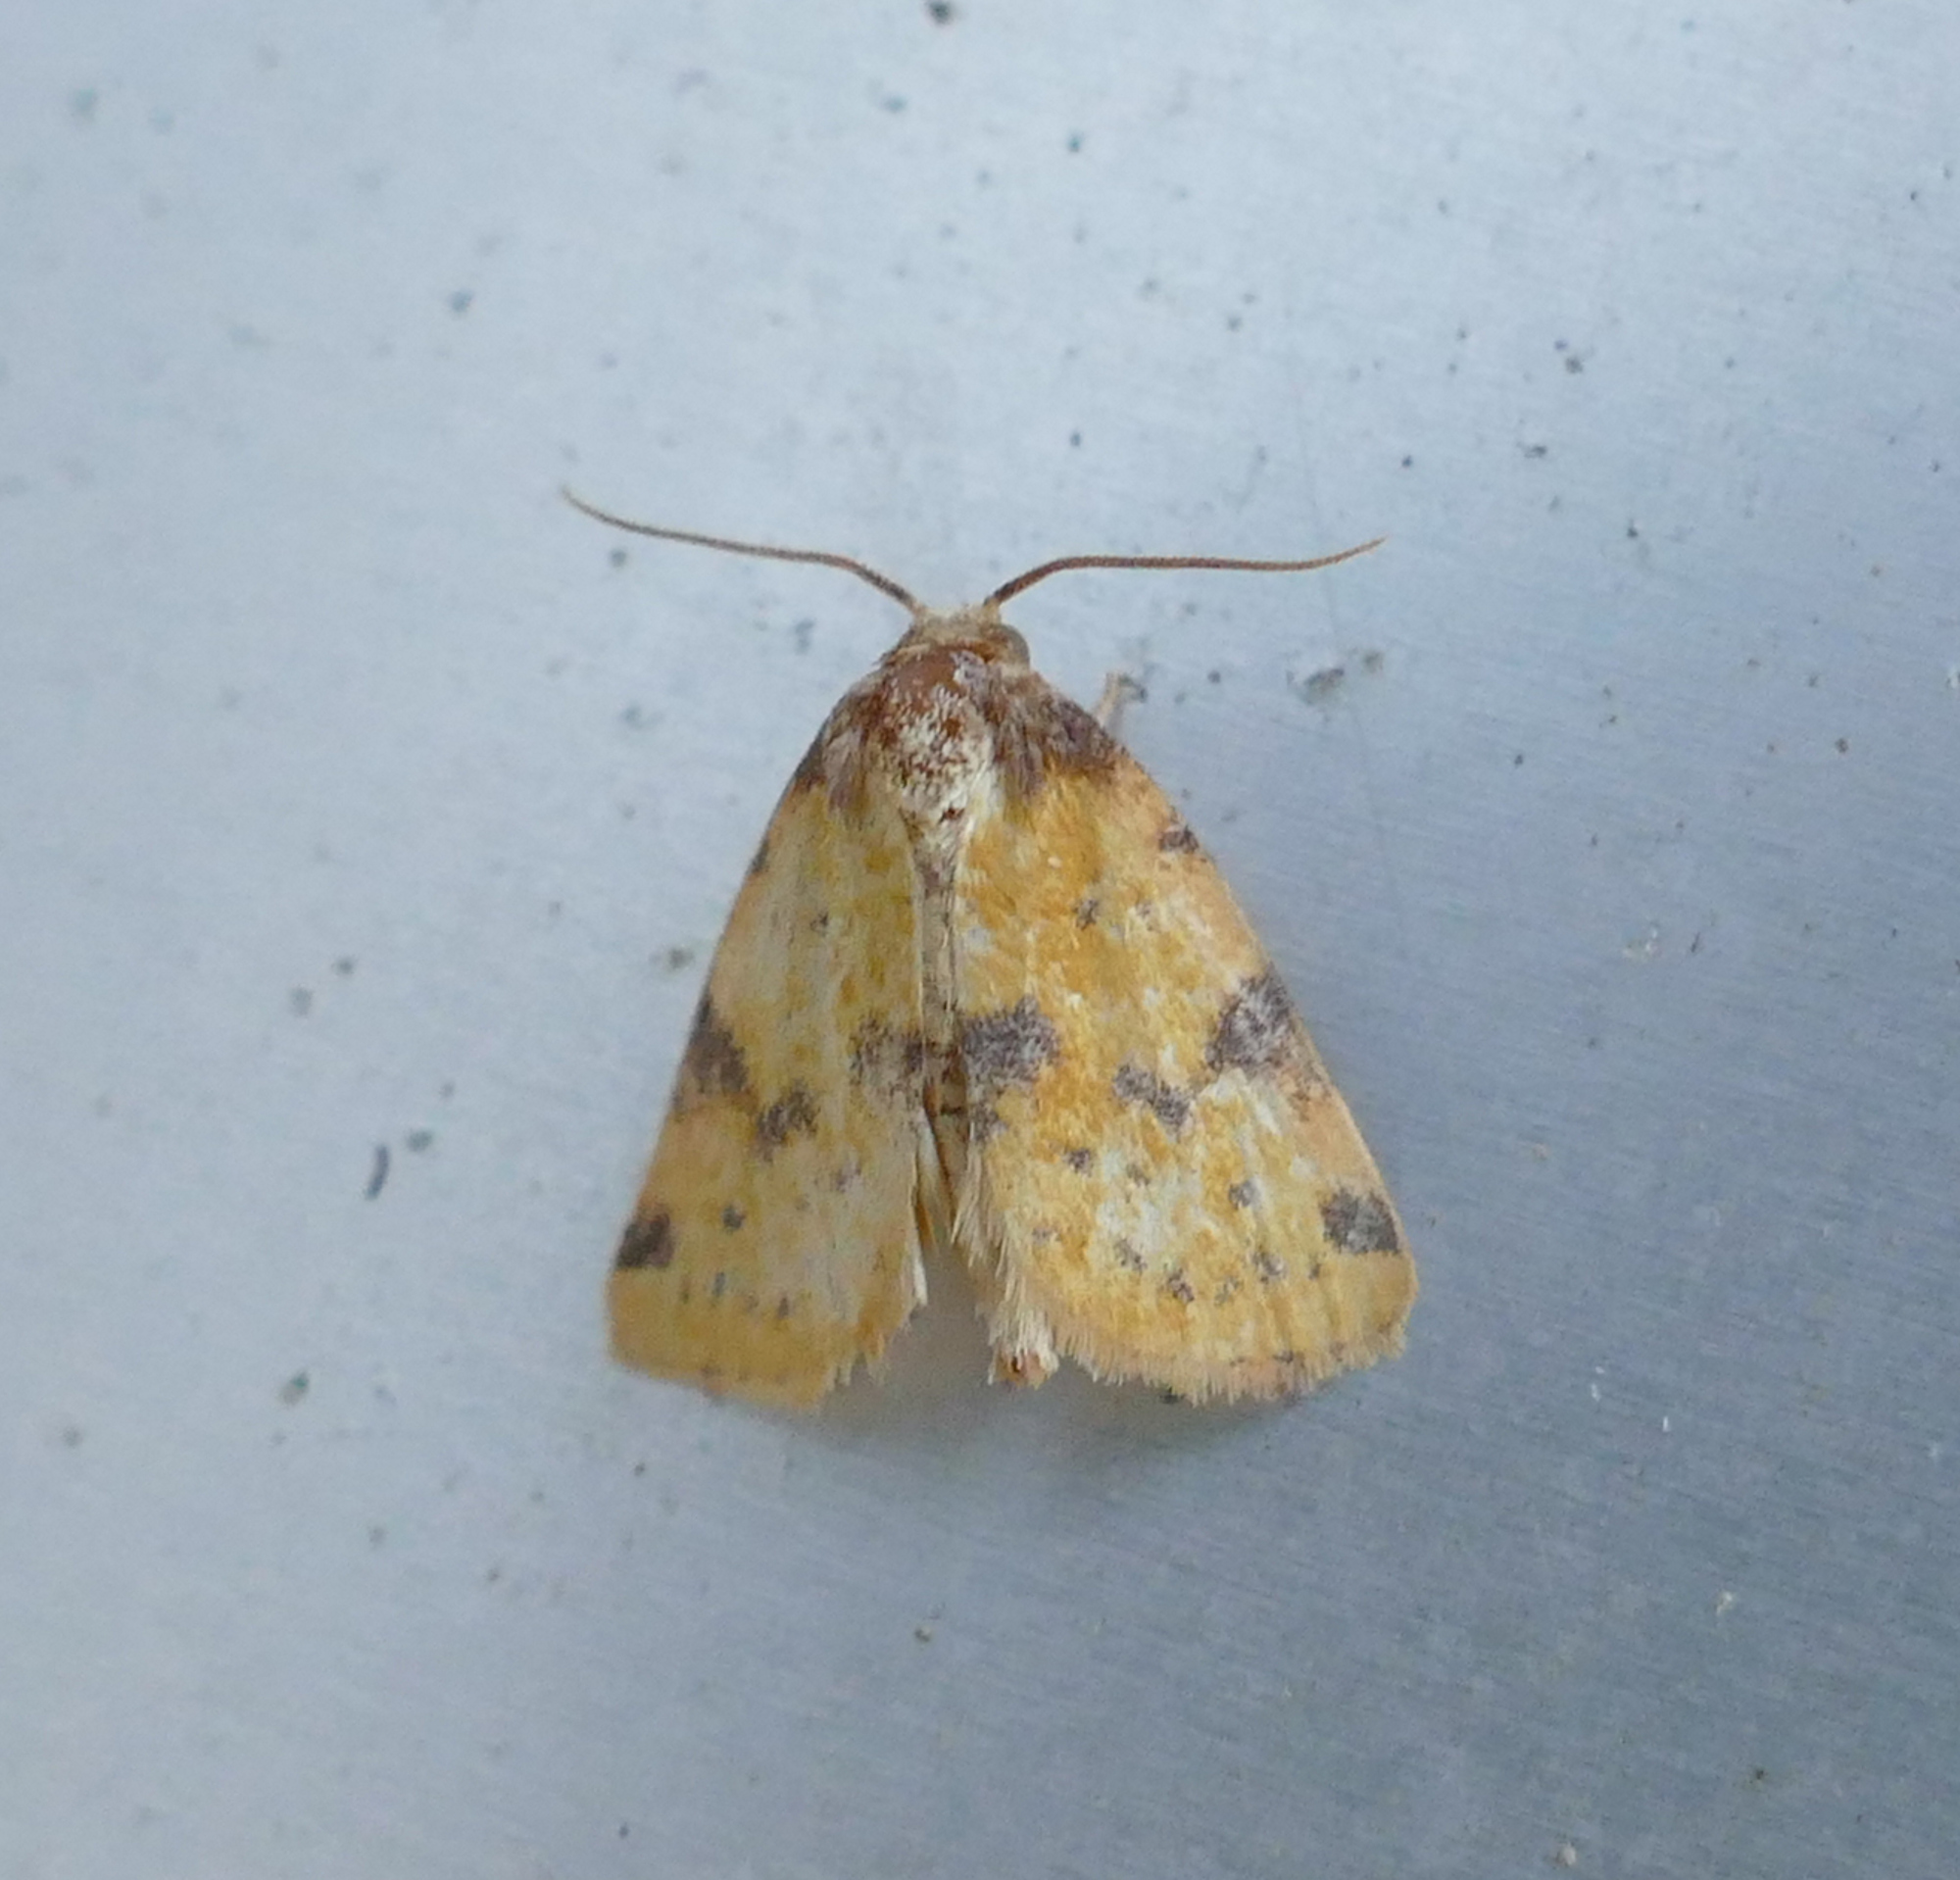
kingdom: Animalia
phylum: Arthropoda
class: Insecta
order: Lepidoptera
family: Noctuidae
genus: Azenia
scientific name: Azenia obtusa
